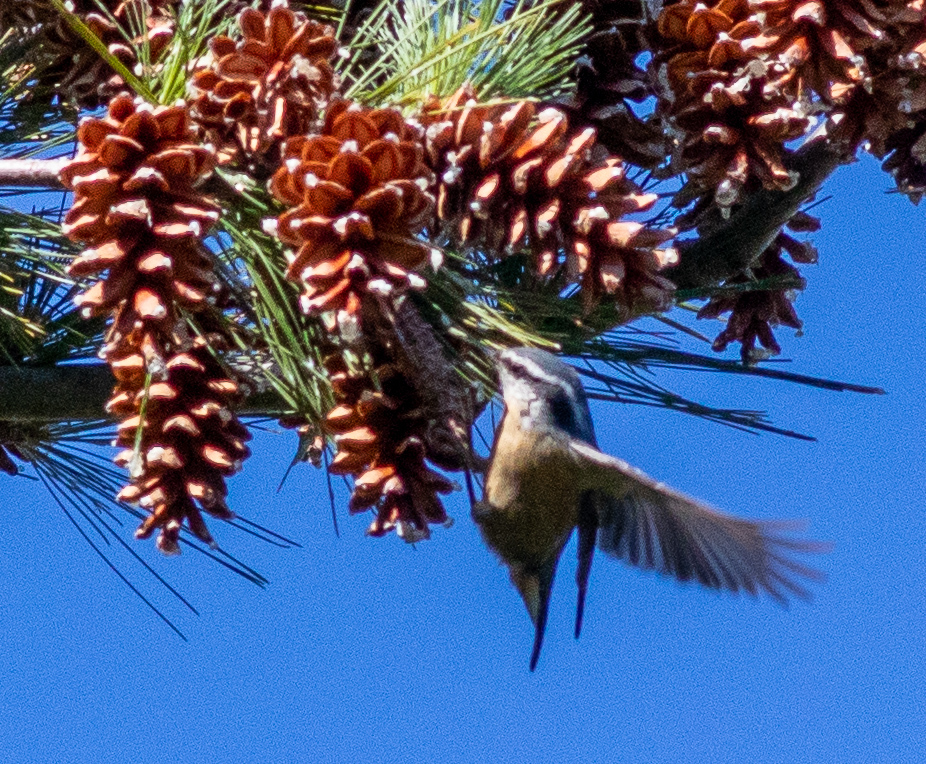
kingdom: Animalia
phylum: Chordata
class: Aves
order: Passeriformes
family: Sittidae
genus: Sitta
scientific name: Sitta canadensis
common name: Red-breasted nuthatch
